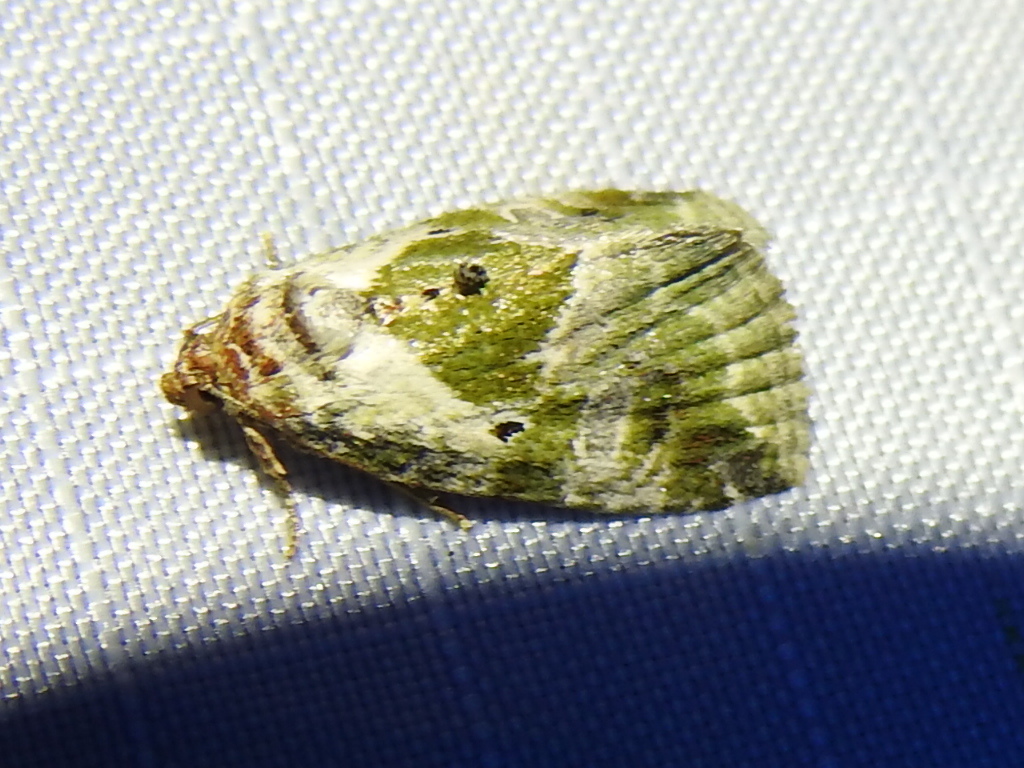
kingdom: Animalia
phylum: Arthropoda
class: Insecta
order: Lepidoptera
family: Noctuidae
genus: Maliattha
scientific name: Maliattha synochitis
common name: Black-dotted glyph
